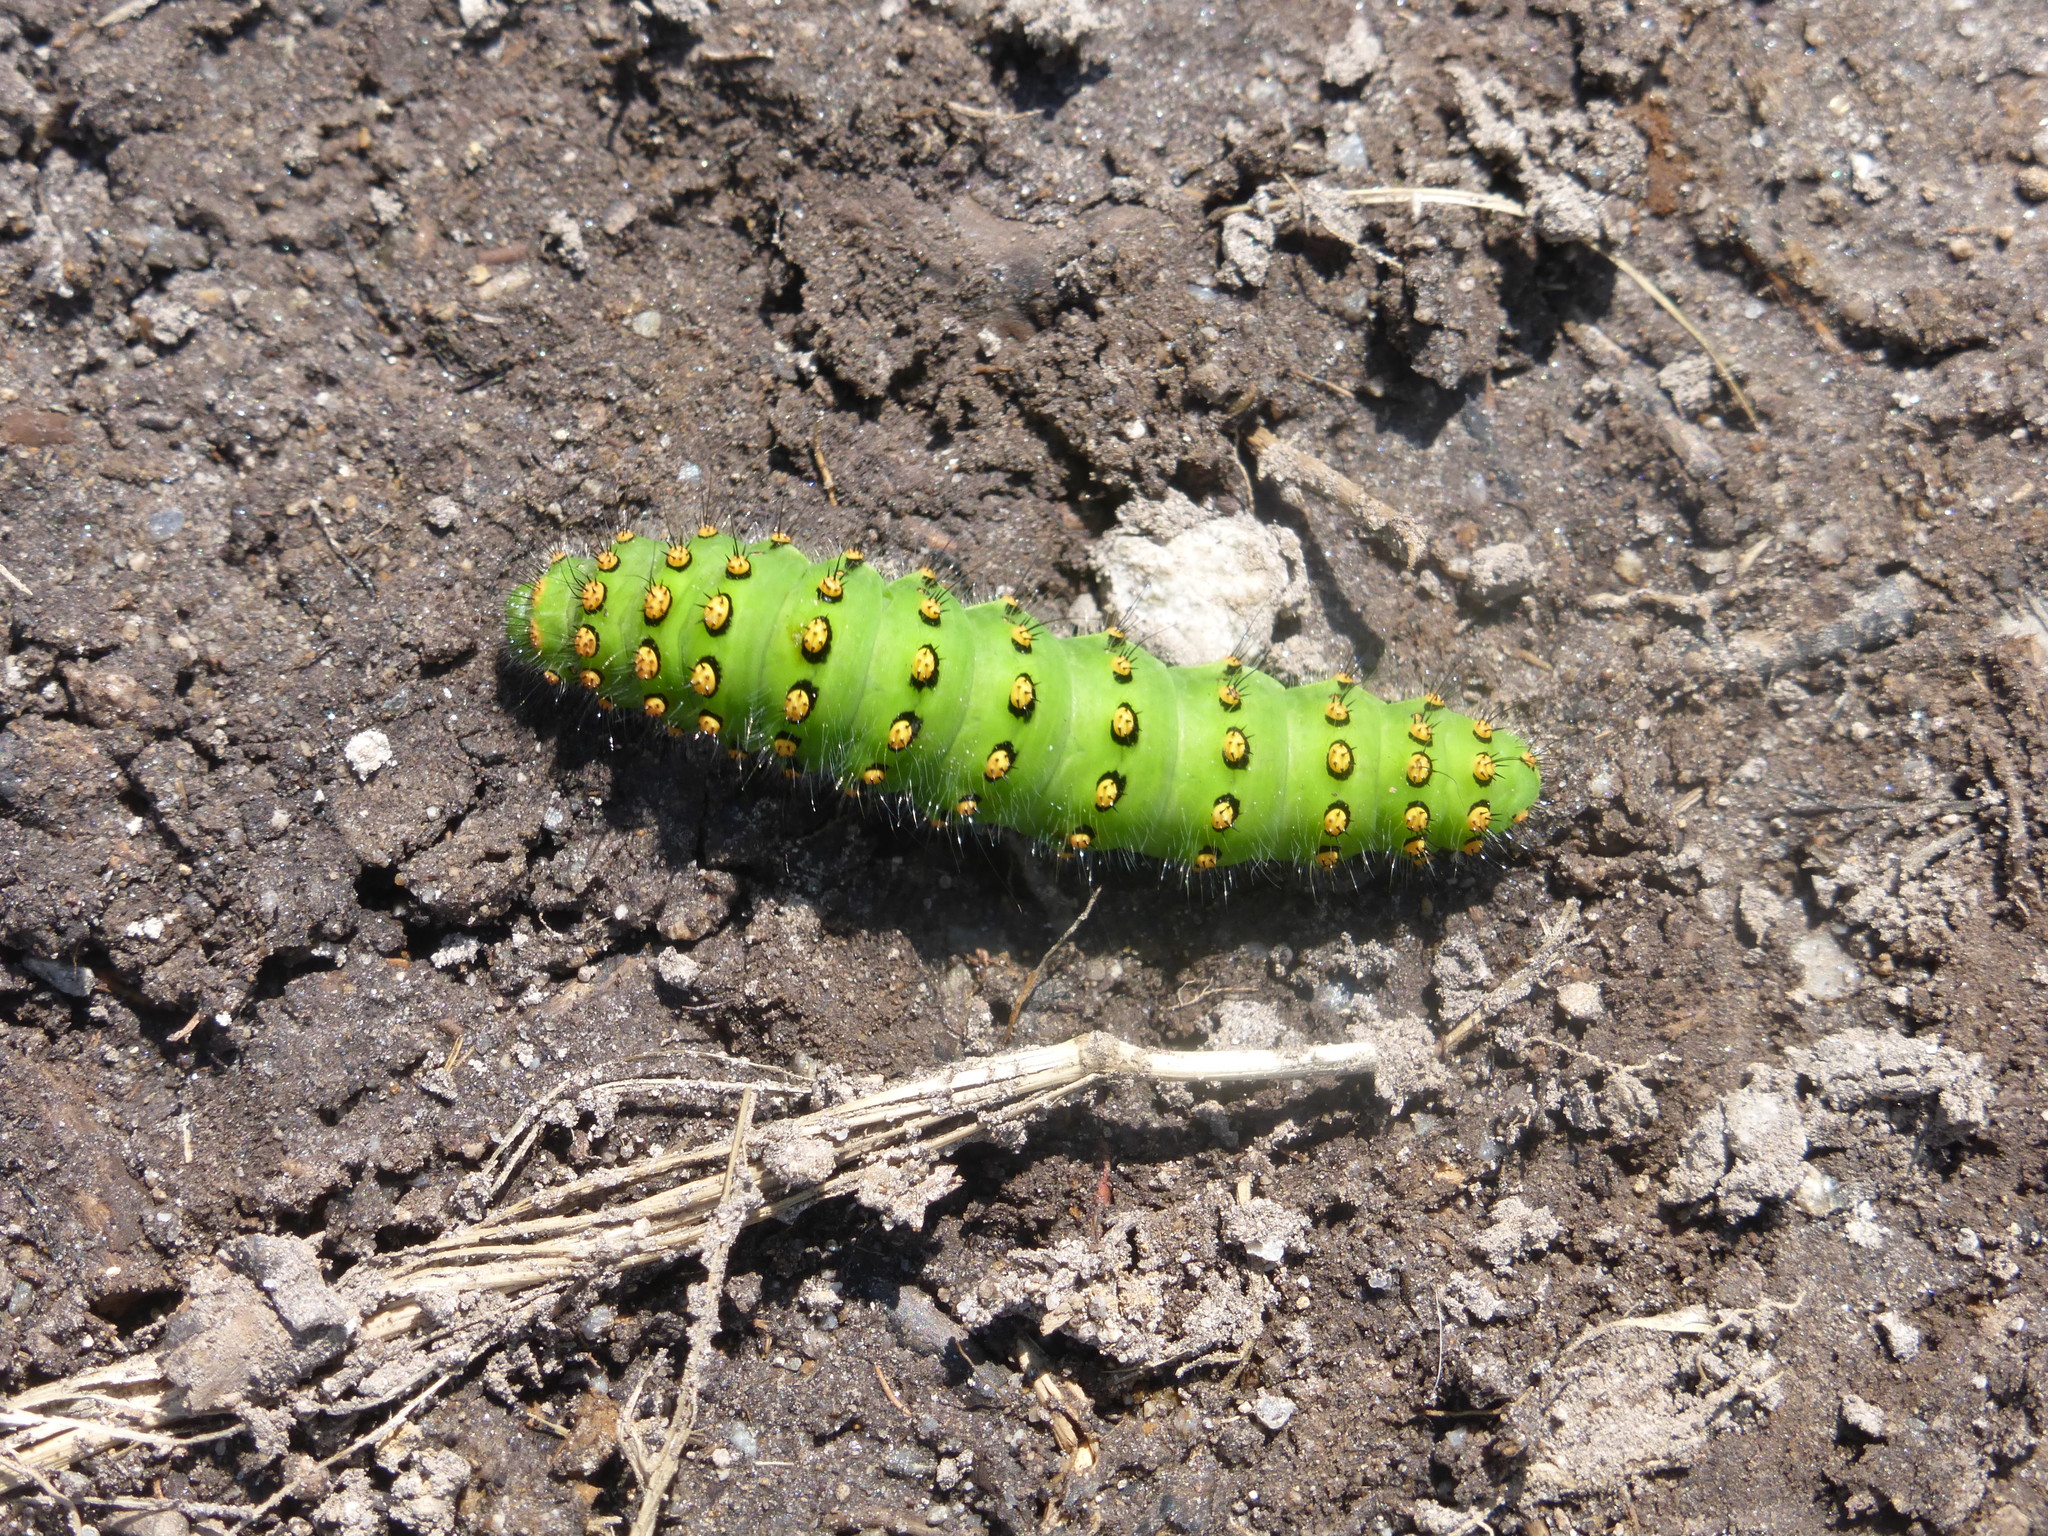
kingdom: Animalia
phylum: Arthropoda
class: Insecta
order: Lepidoptera
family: Saturniidae
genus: Saturnia
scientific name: Saturnia pavonia
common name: Emperor moth
